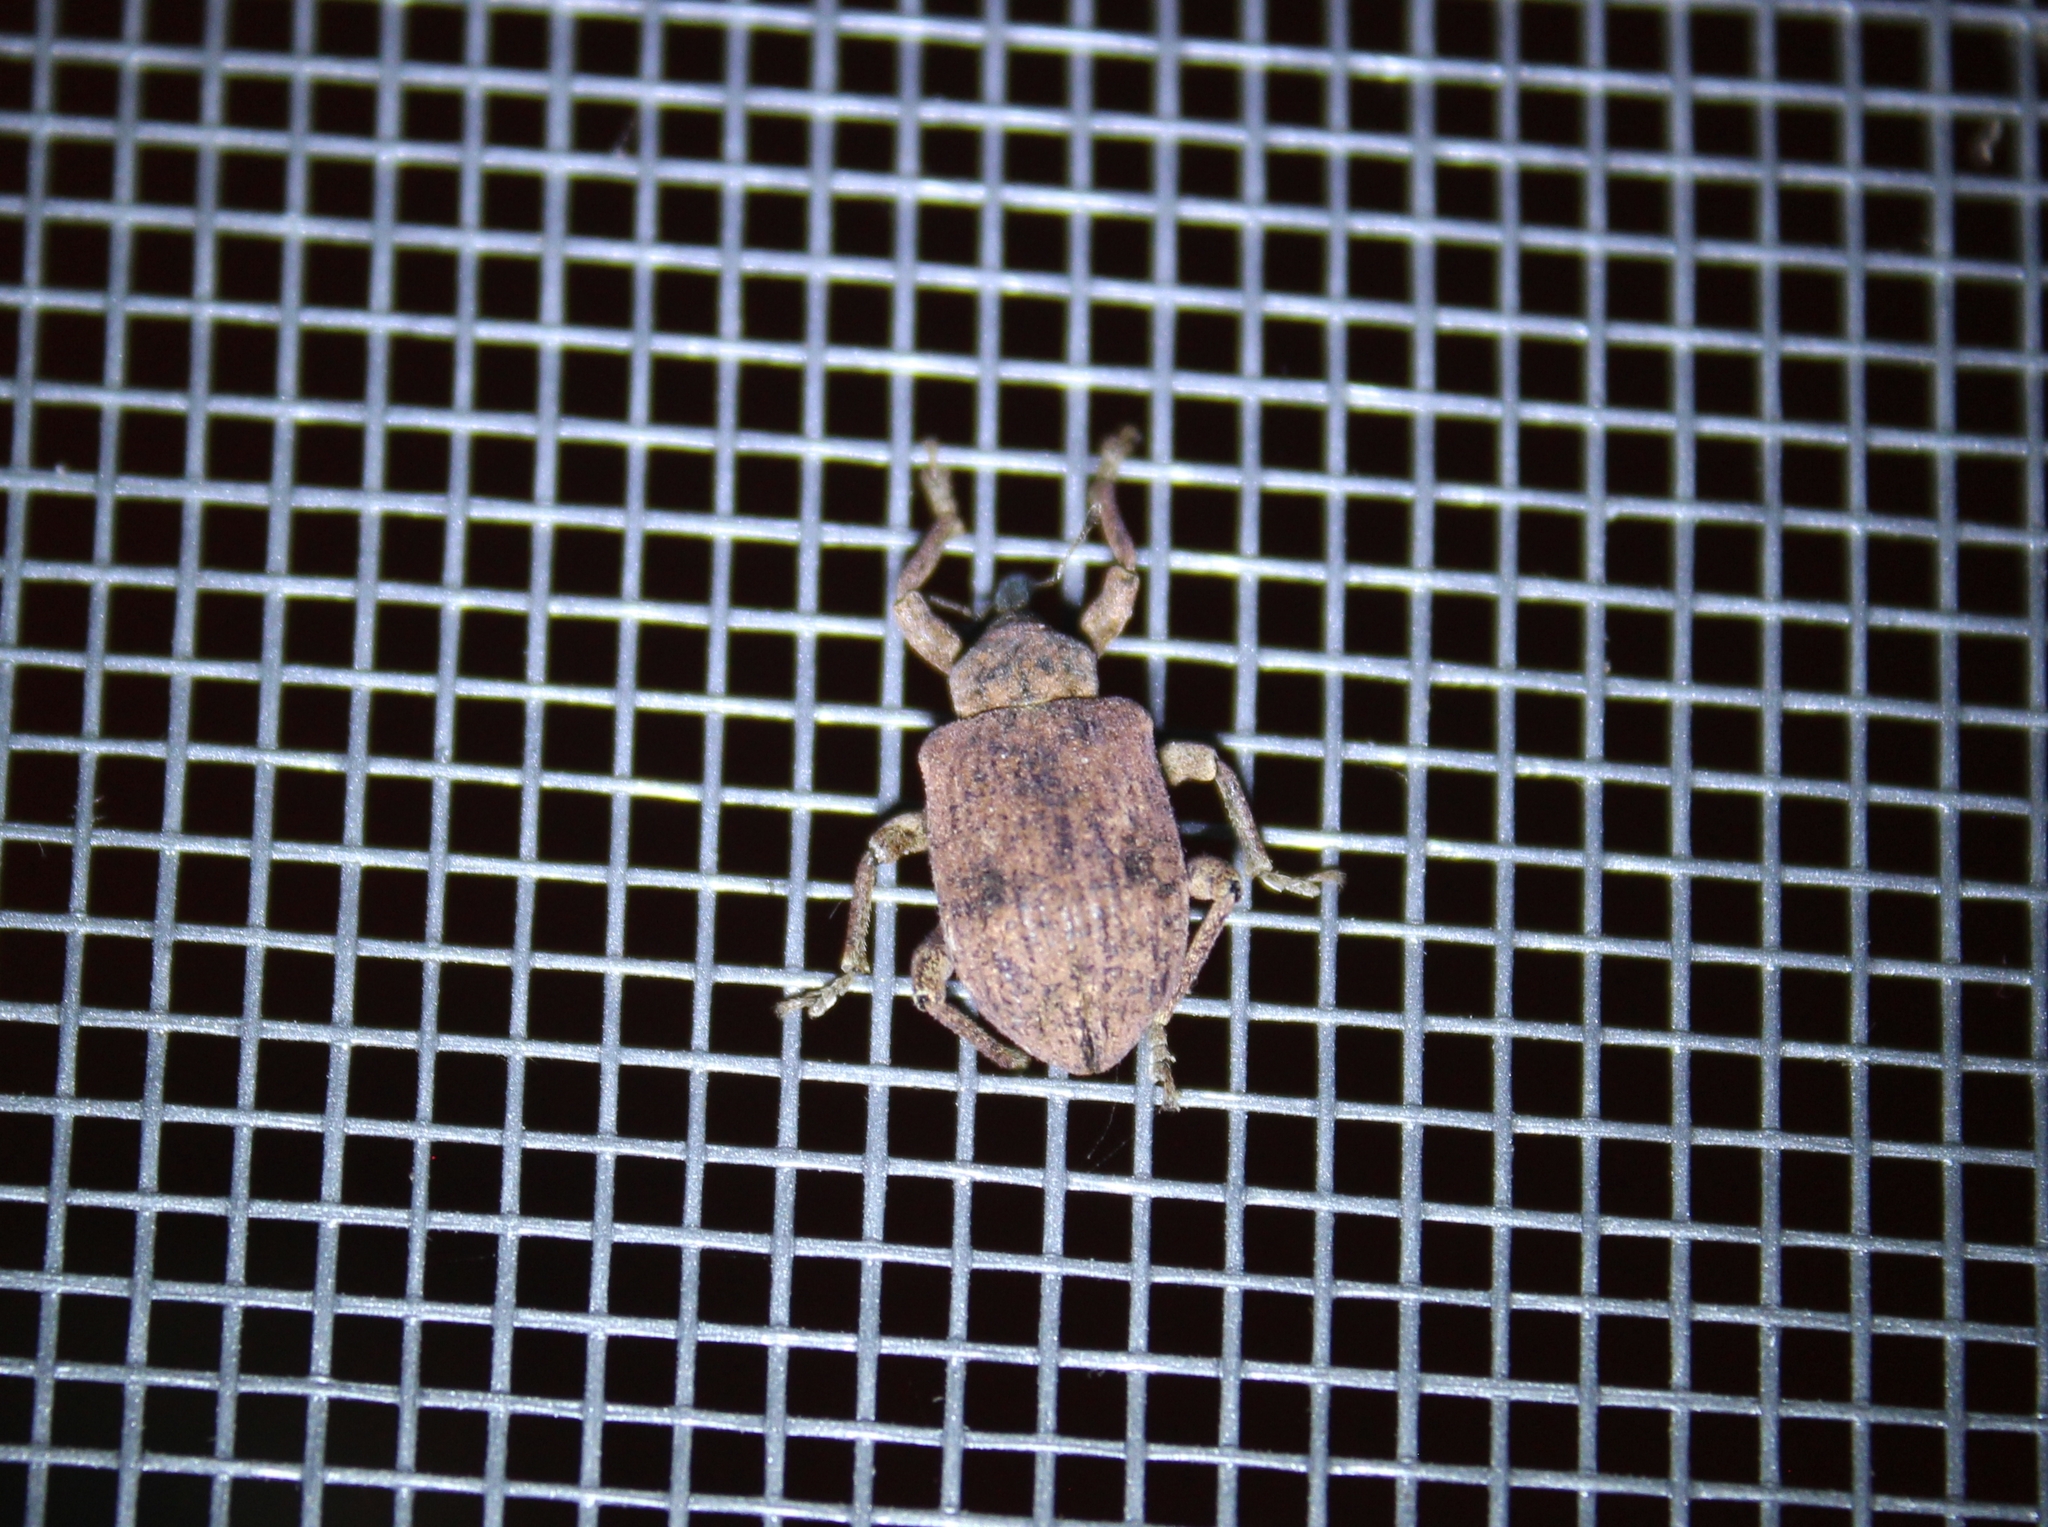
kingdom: Animalia
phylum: Arthropoda
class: Insecta
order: Coleoptera
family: Curculionidae
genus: Phelypera
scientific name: Phelypera
